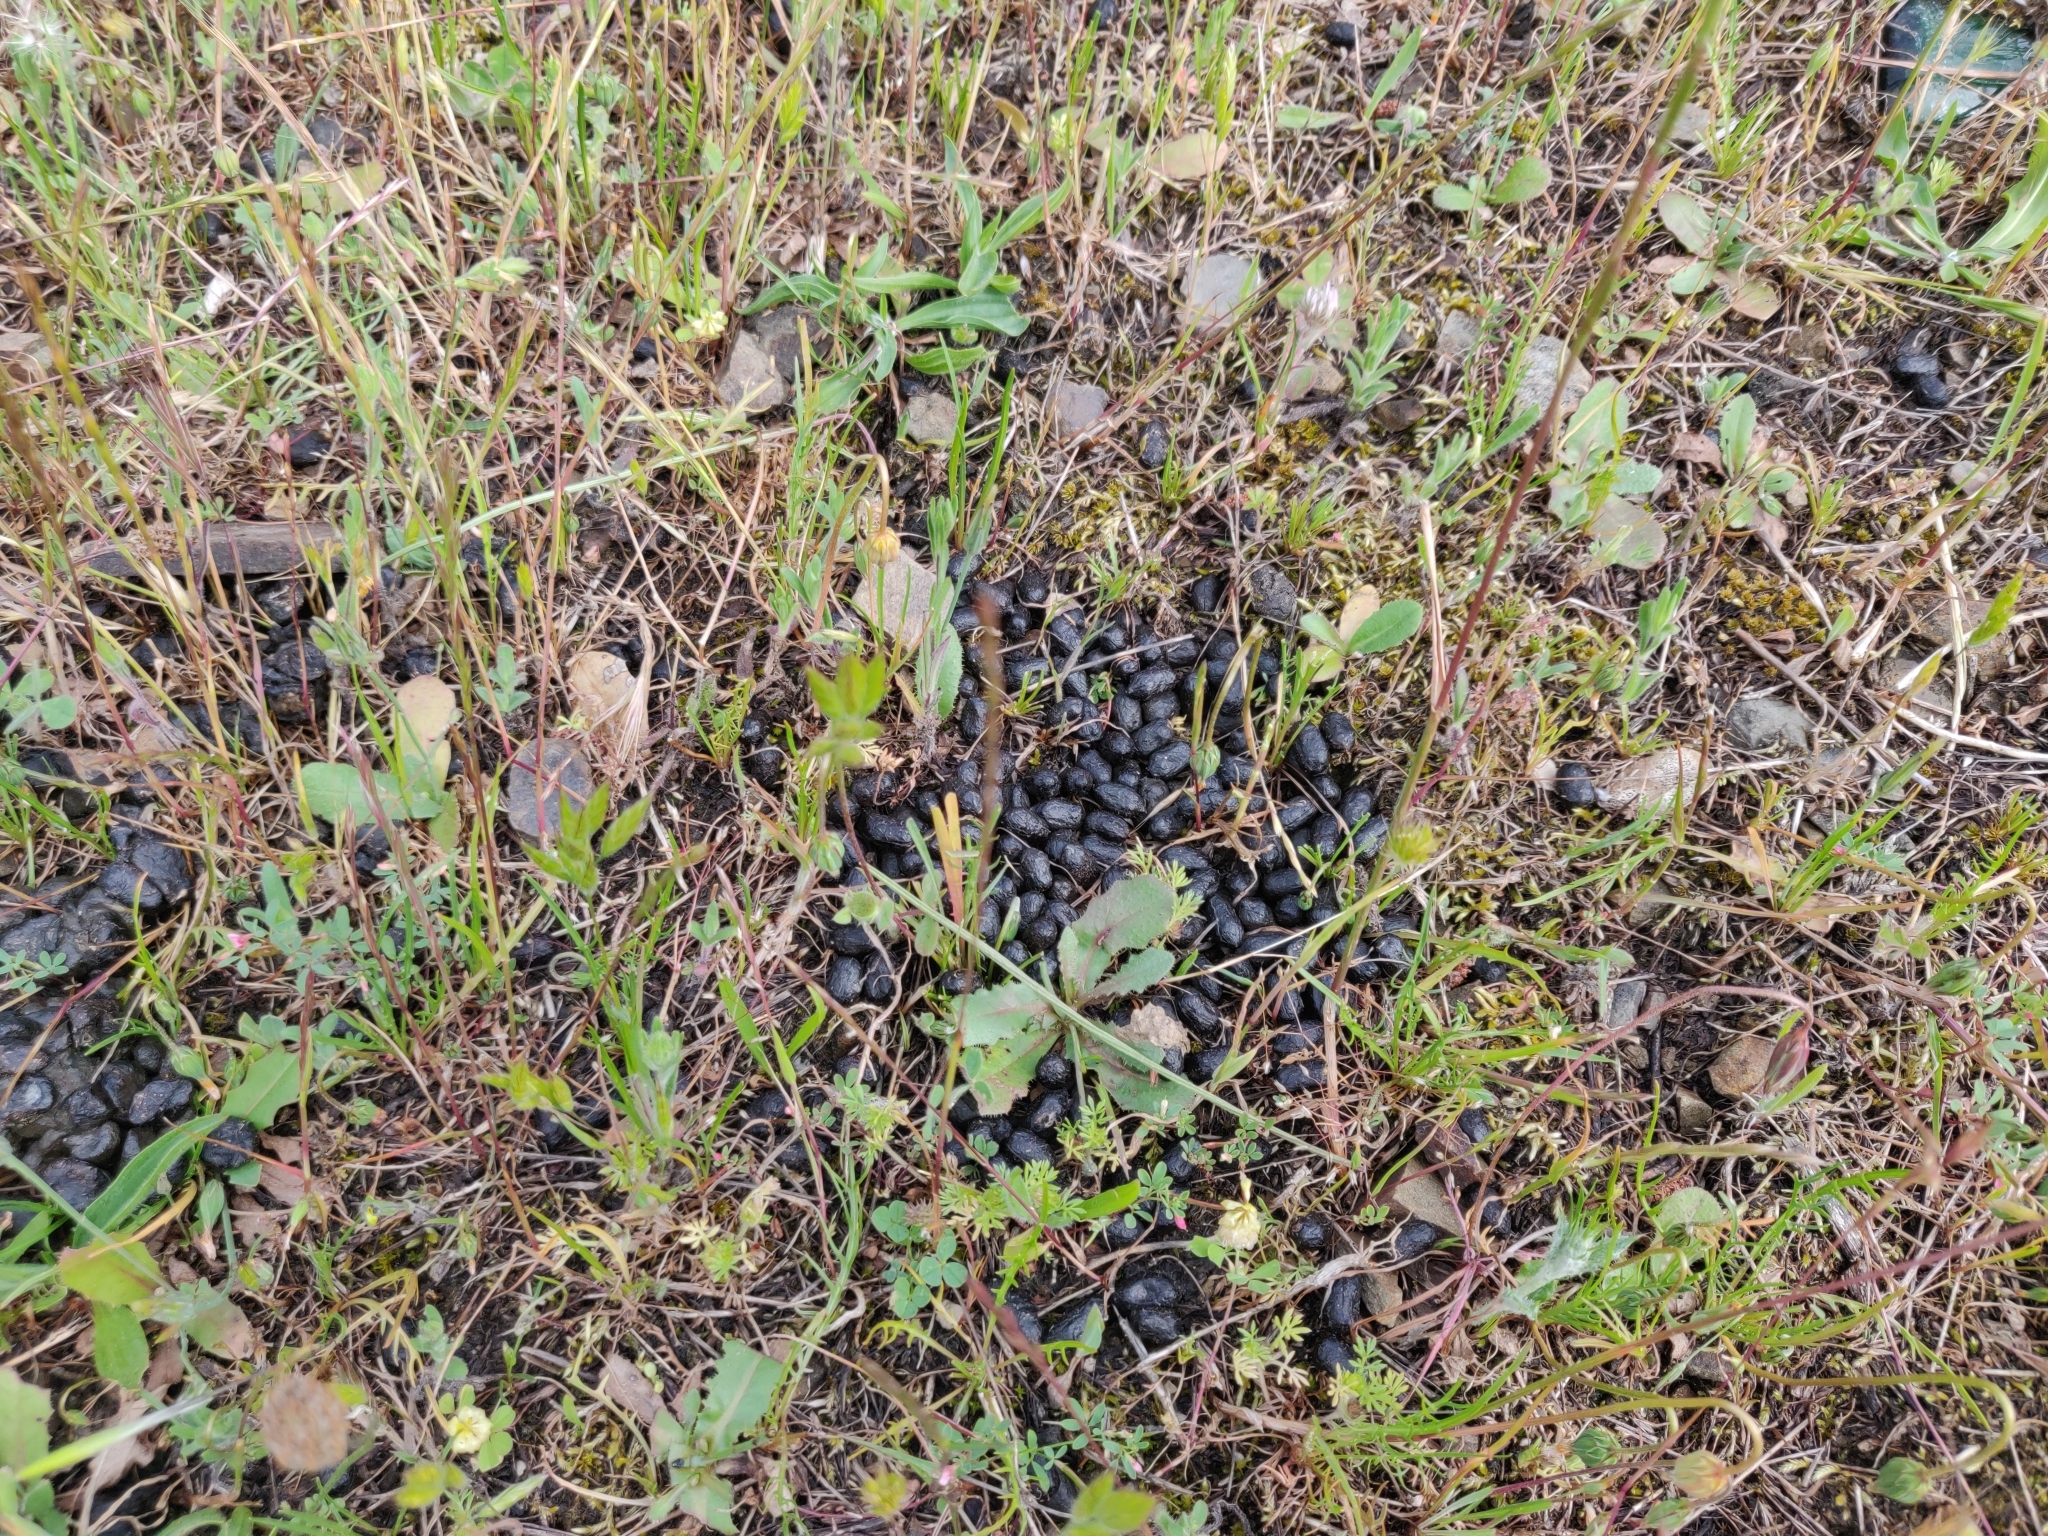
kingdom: Animalia
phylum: Chordata
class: Mammalia
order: Artiodactyla
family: Cervidae
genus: Odocoileus
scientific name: Odocoileus hemionus
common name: Mule deer
